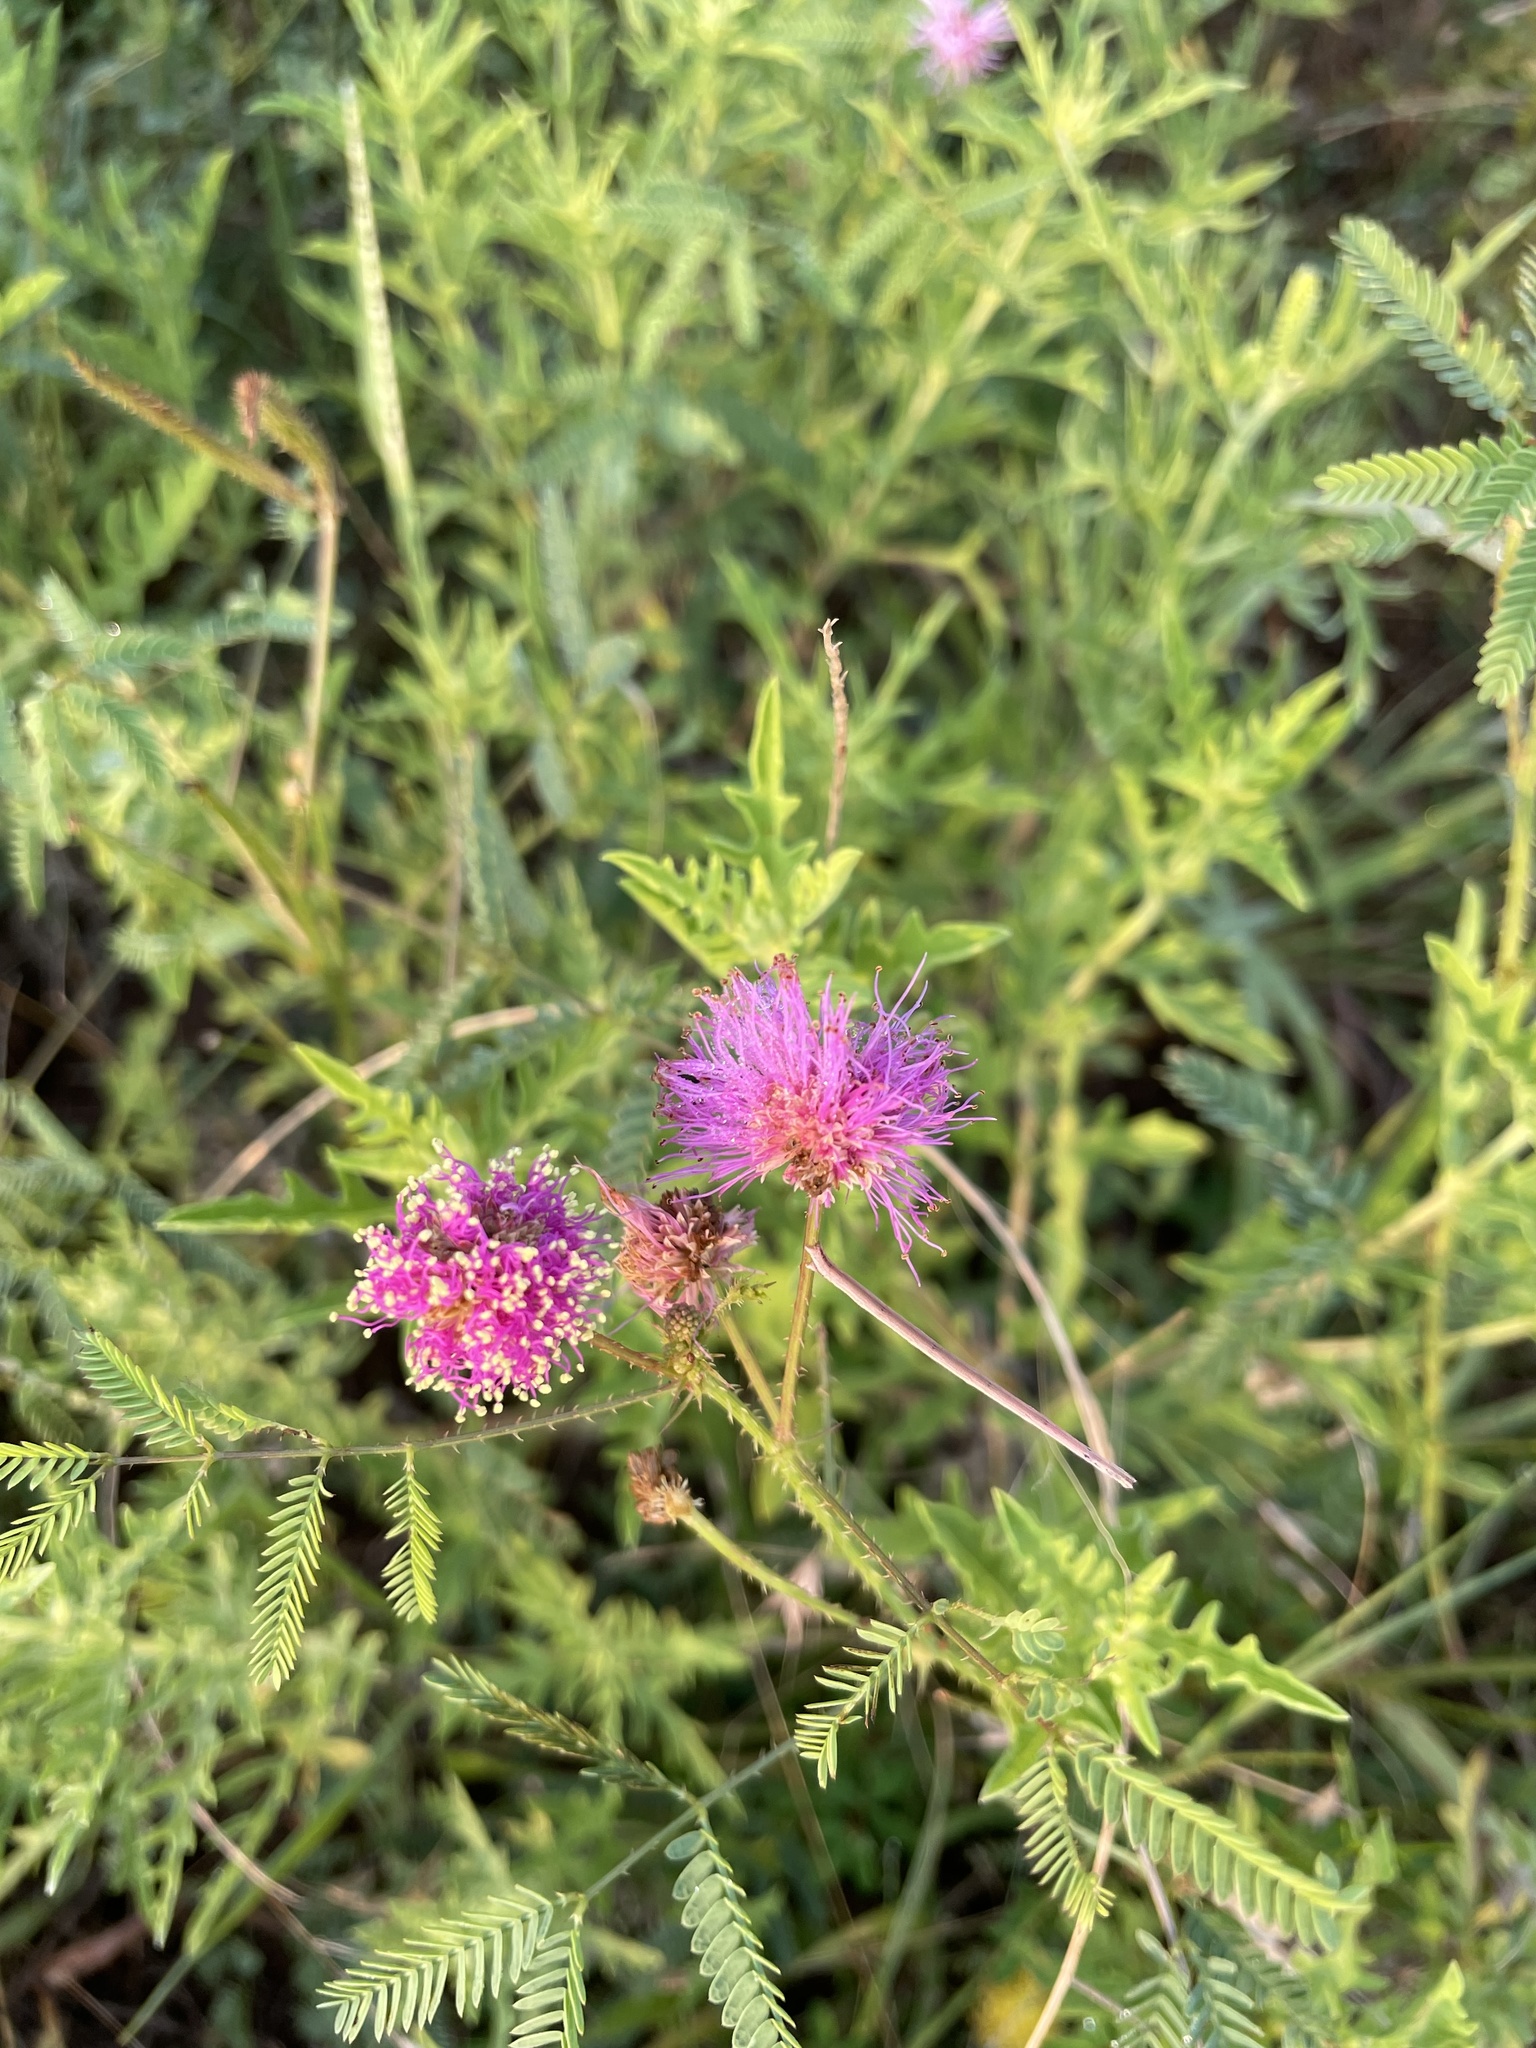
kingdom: Plantae
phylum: Tracheophyta
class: Magnoliopsida
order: Fabales
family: Fabaceae
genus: Mimosa
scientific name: Mimosa quadrivalvis
